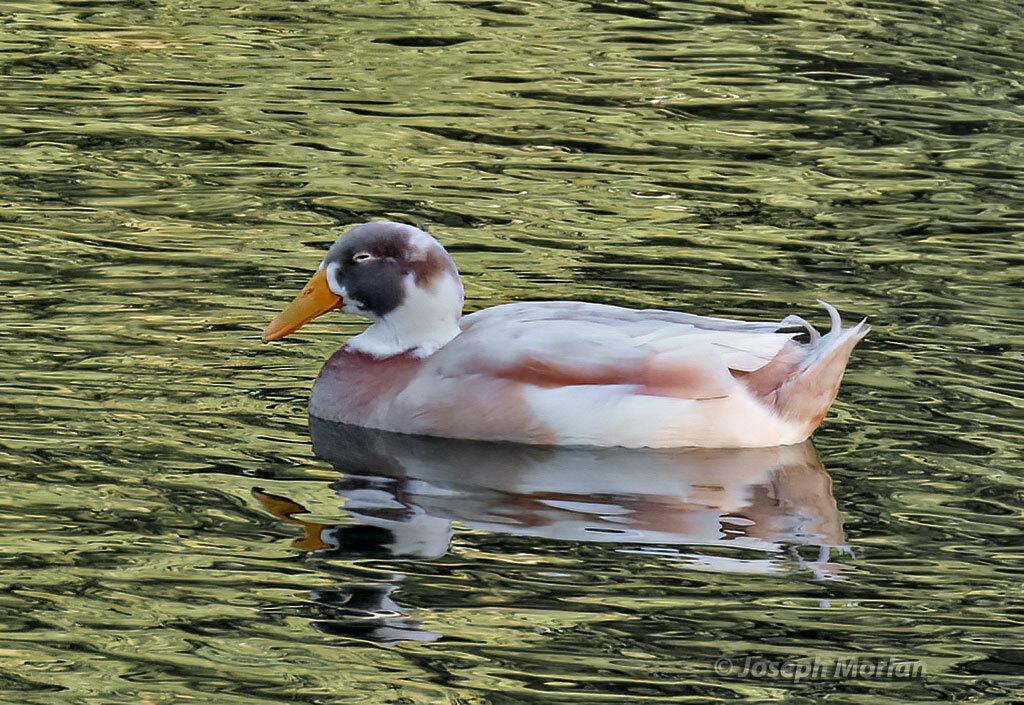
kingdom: Animalia
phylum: Chordata
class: Aves
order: Anseriformes
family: Anatidae
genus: Anas
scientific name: Anas platyrhynchos
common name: Mallard
